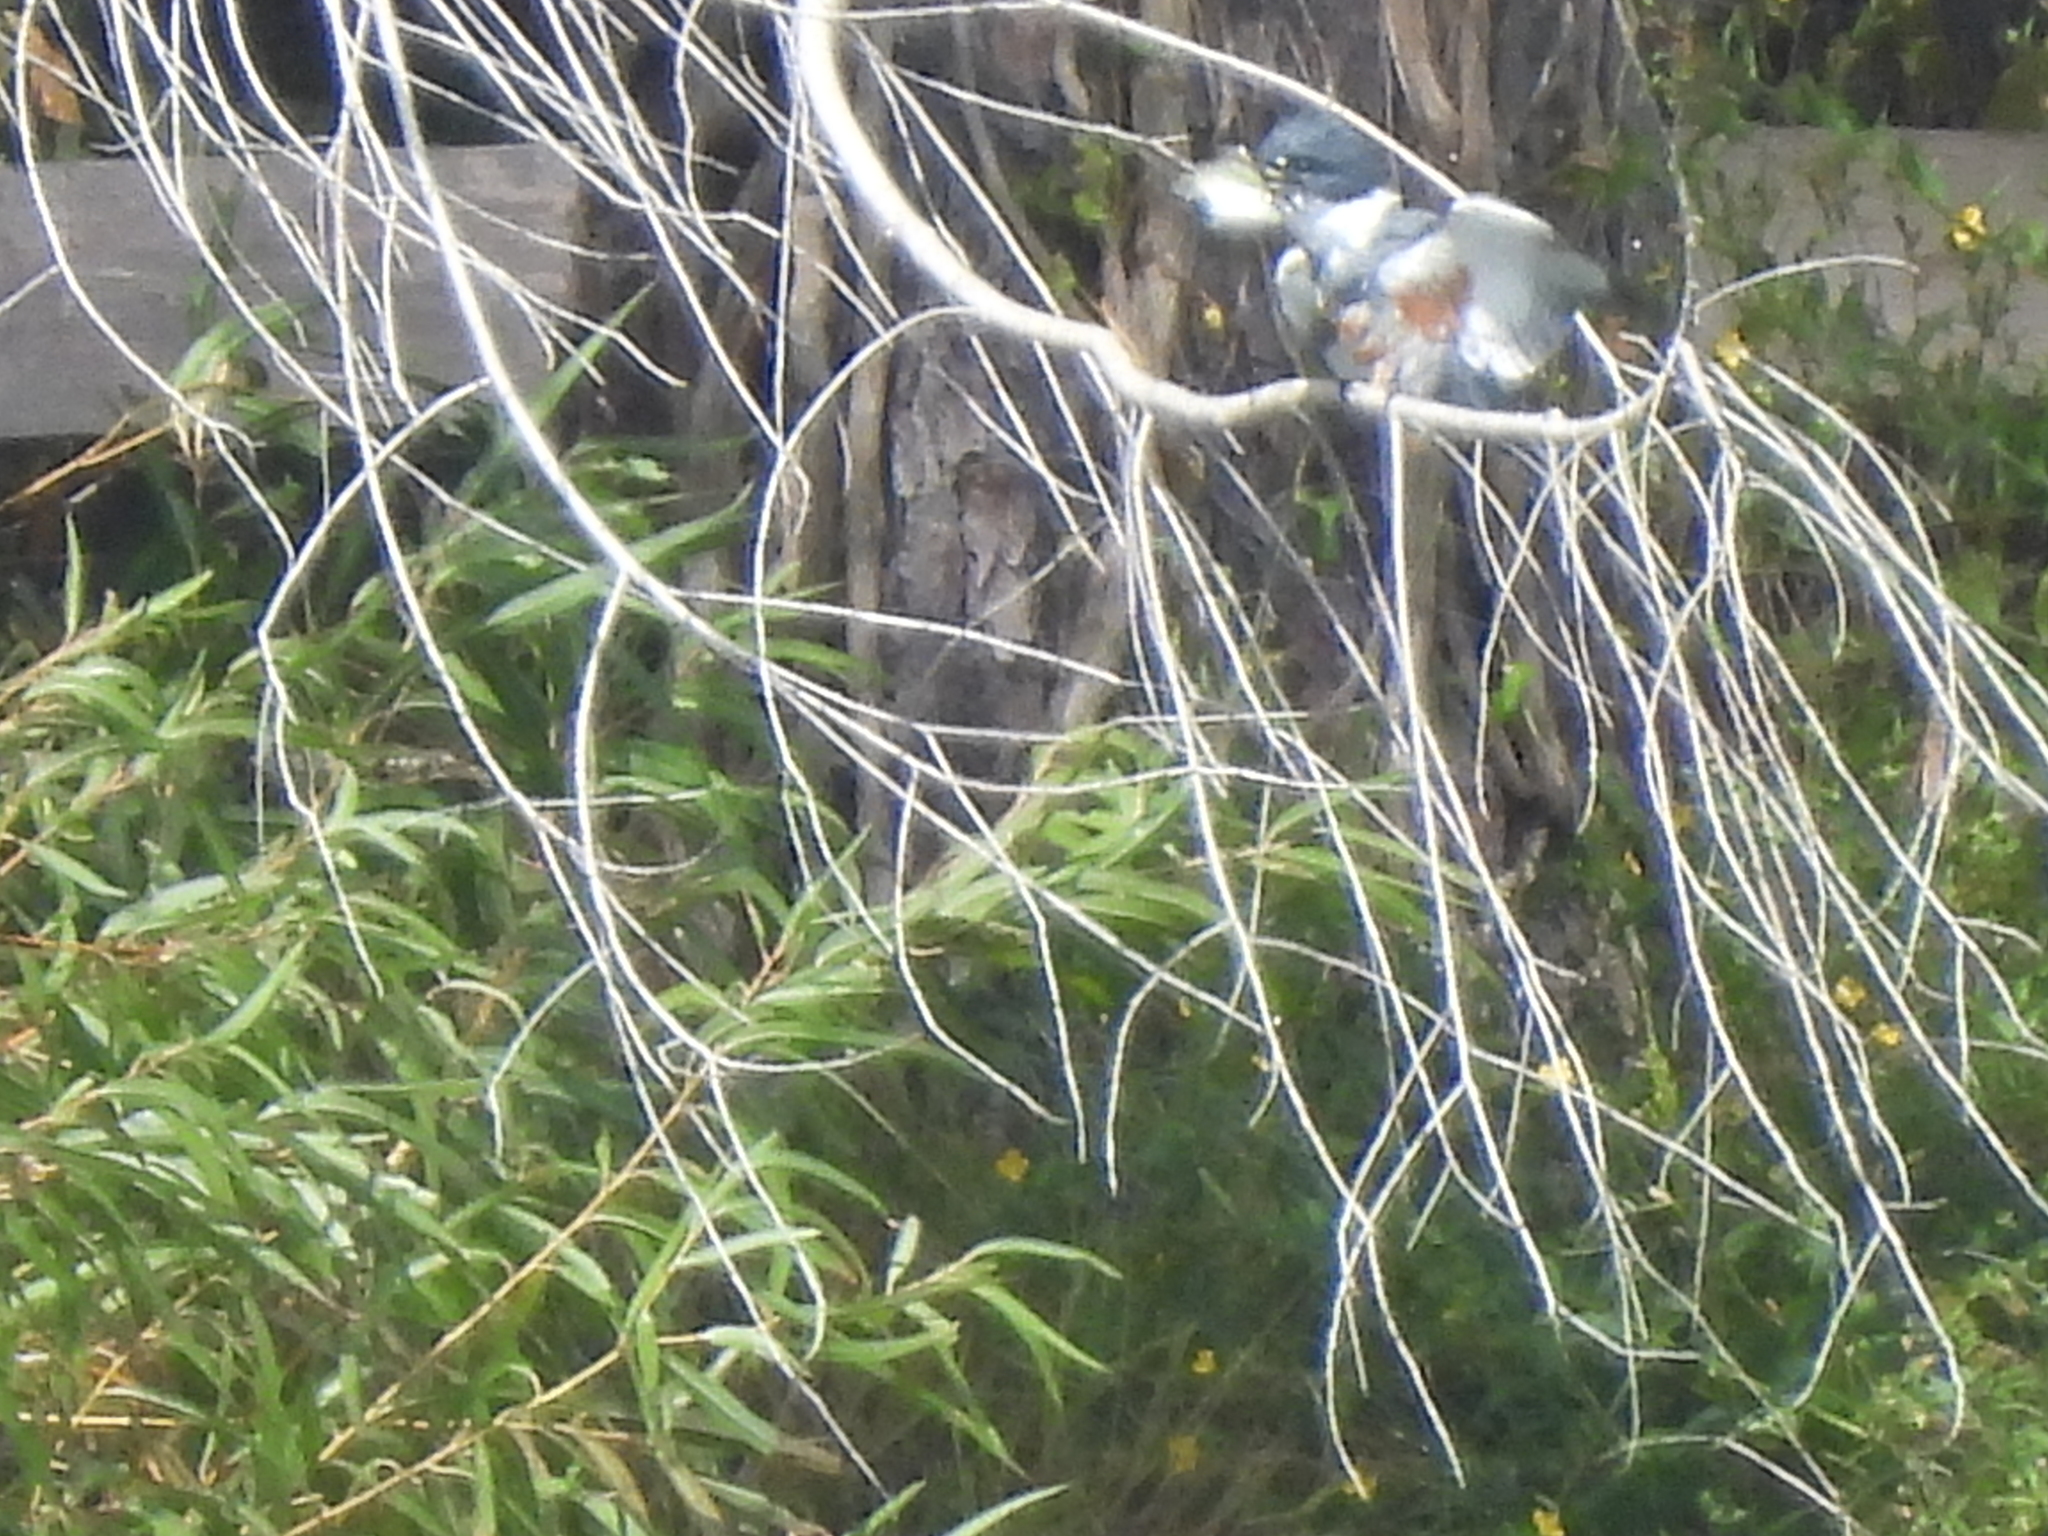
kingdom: Animalia
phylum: Chordata
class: Aves
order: Coraciiformes
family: Alcedinidae
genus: Megaceryle
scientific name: Megaceryle alcyon
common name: Belted kingfisher
